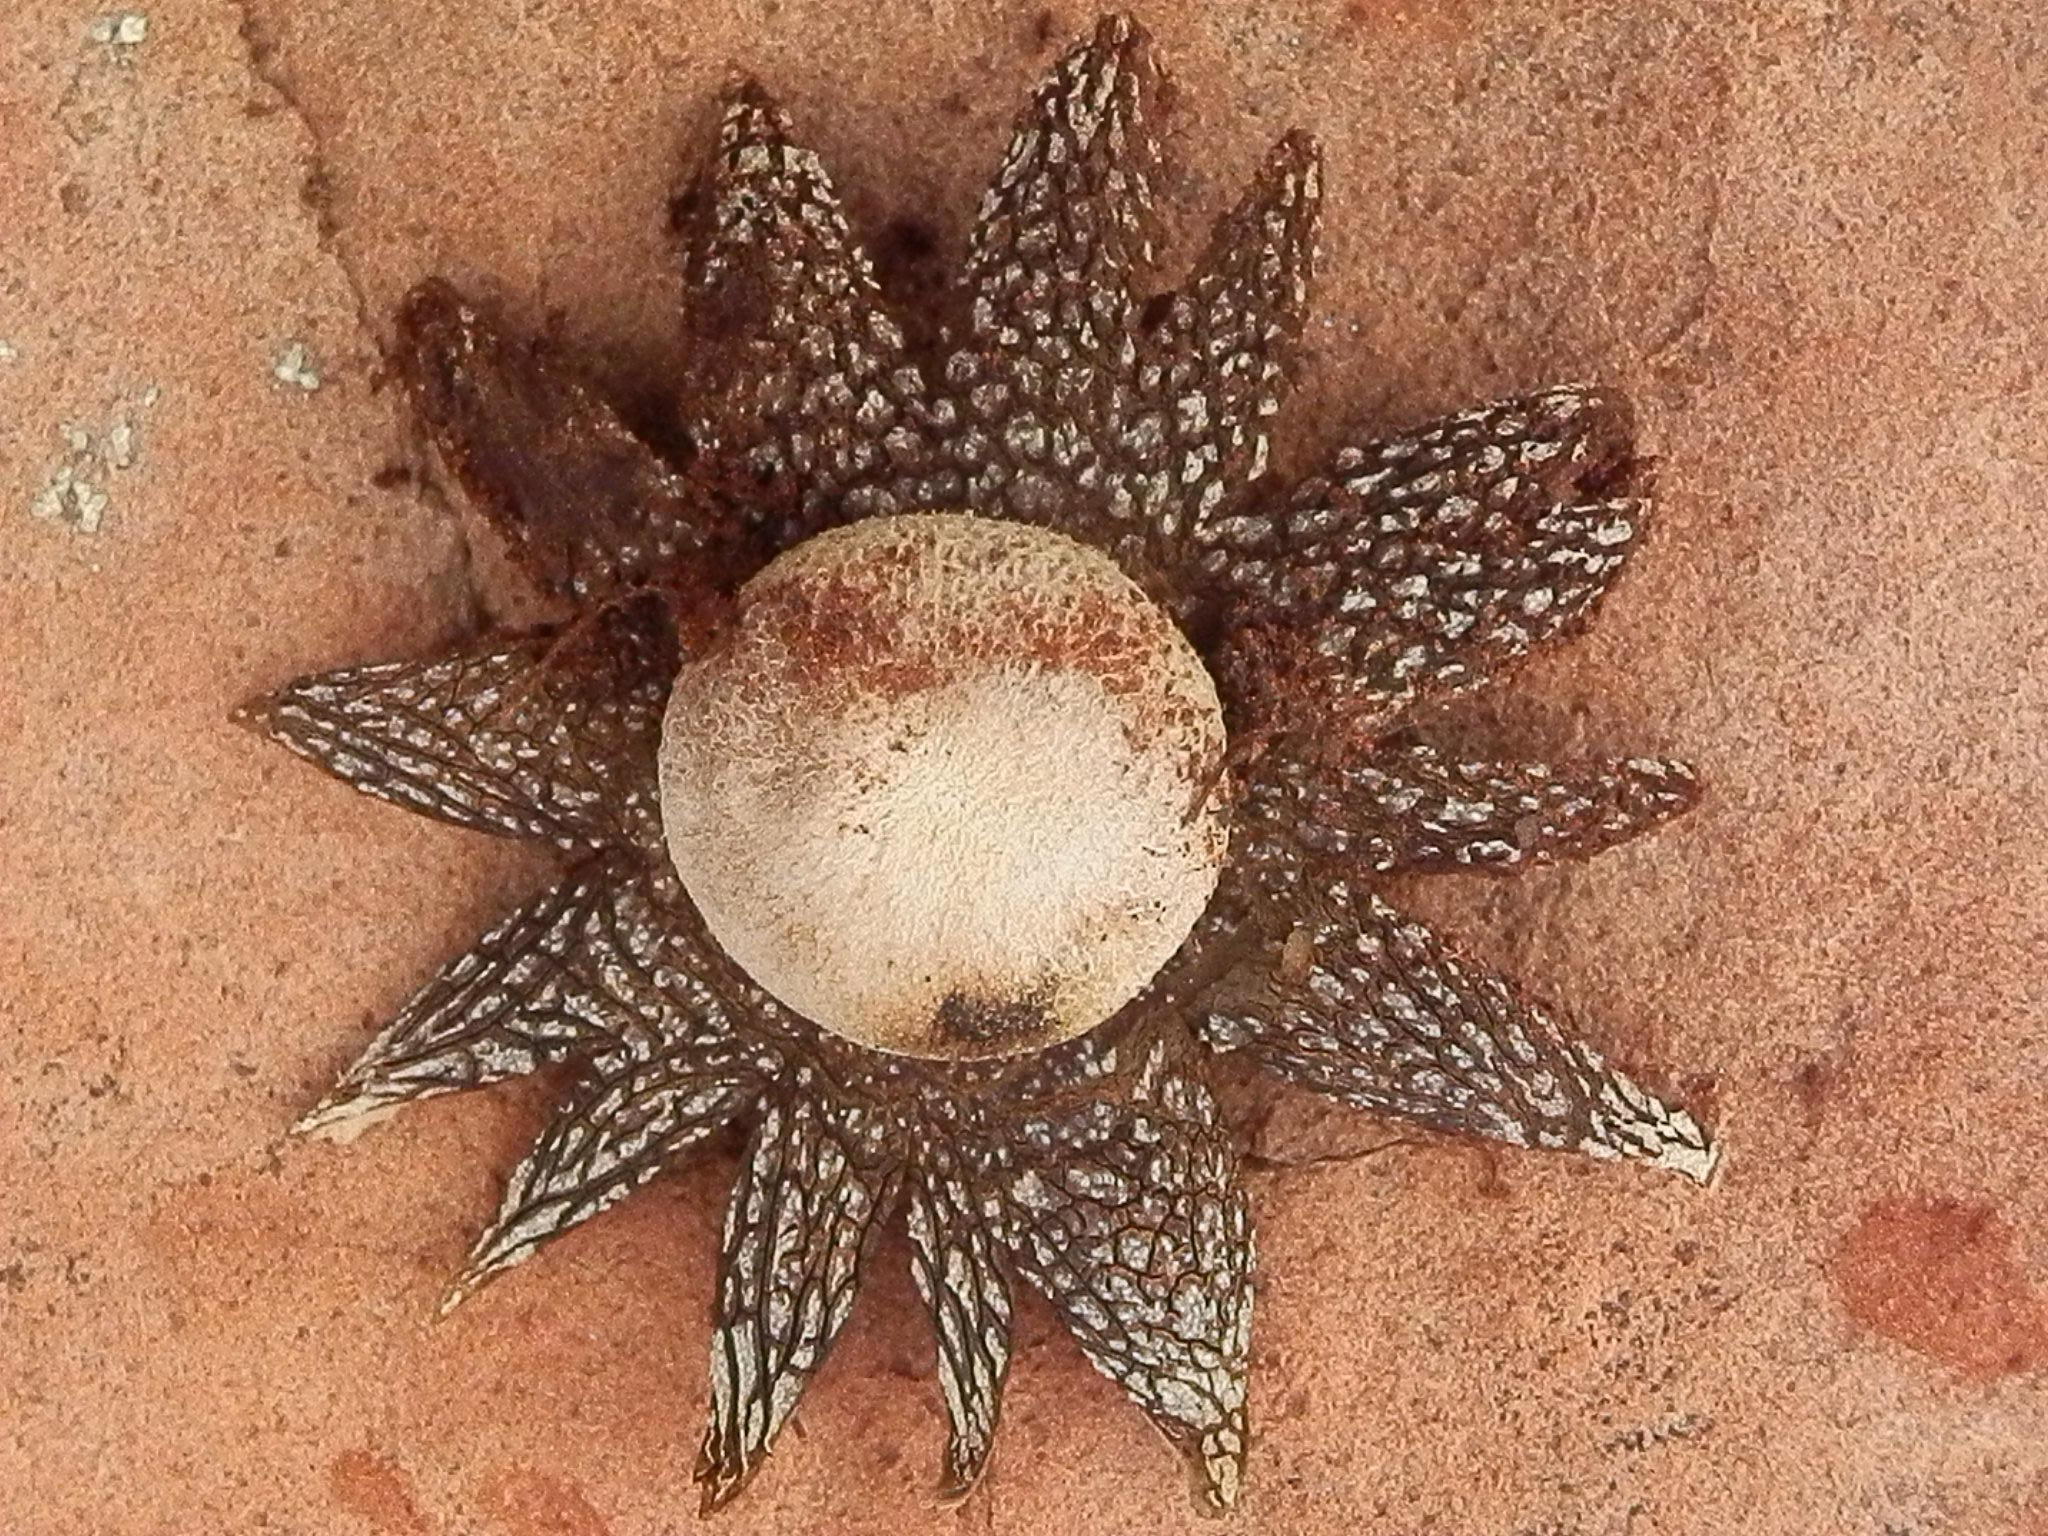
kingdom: Fungi
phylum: Basidiomycota
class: Agaricomycetes
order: Boletales
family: Diplocystidiaceae
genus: Astraeus
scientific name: Astraeus hygrometricus
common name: Barometer earthstar
